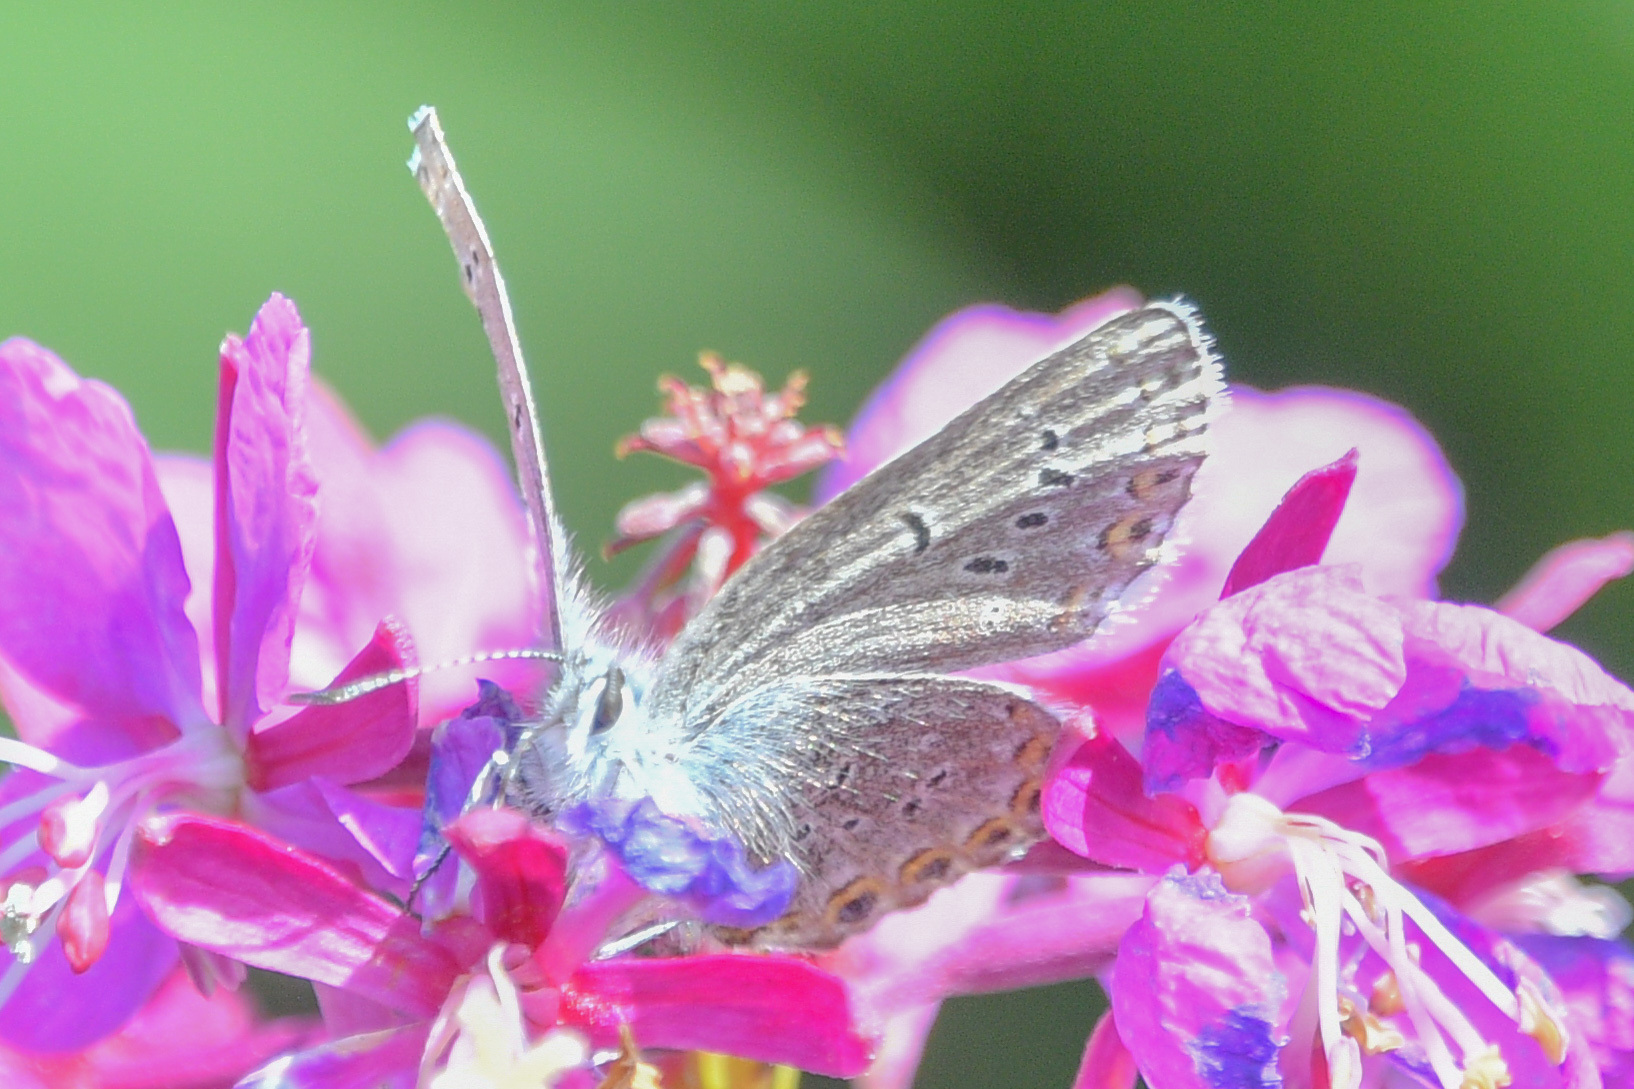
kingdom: Animalia
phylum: Arthropoda
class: Insecta
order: Lepidoptera
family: Lycaenidae
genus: Lycaeides
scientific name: Lycaeides idas
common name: Northern blue
